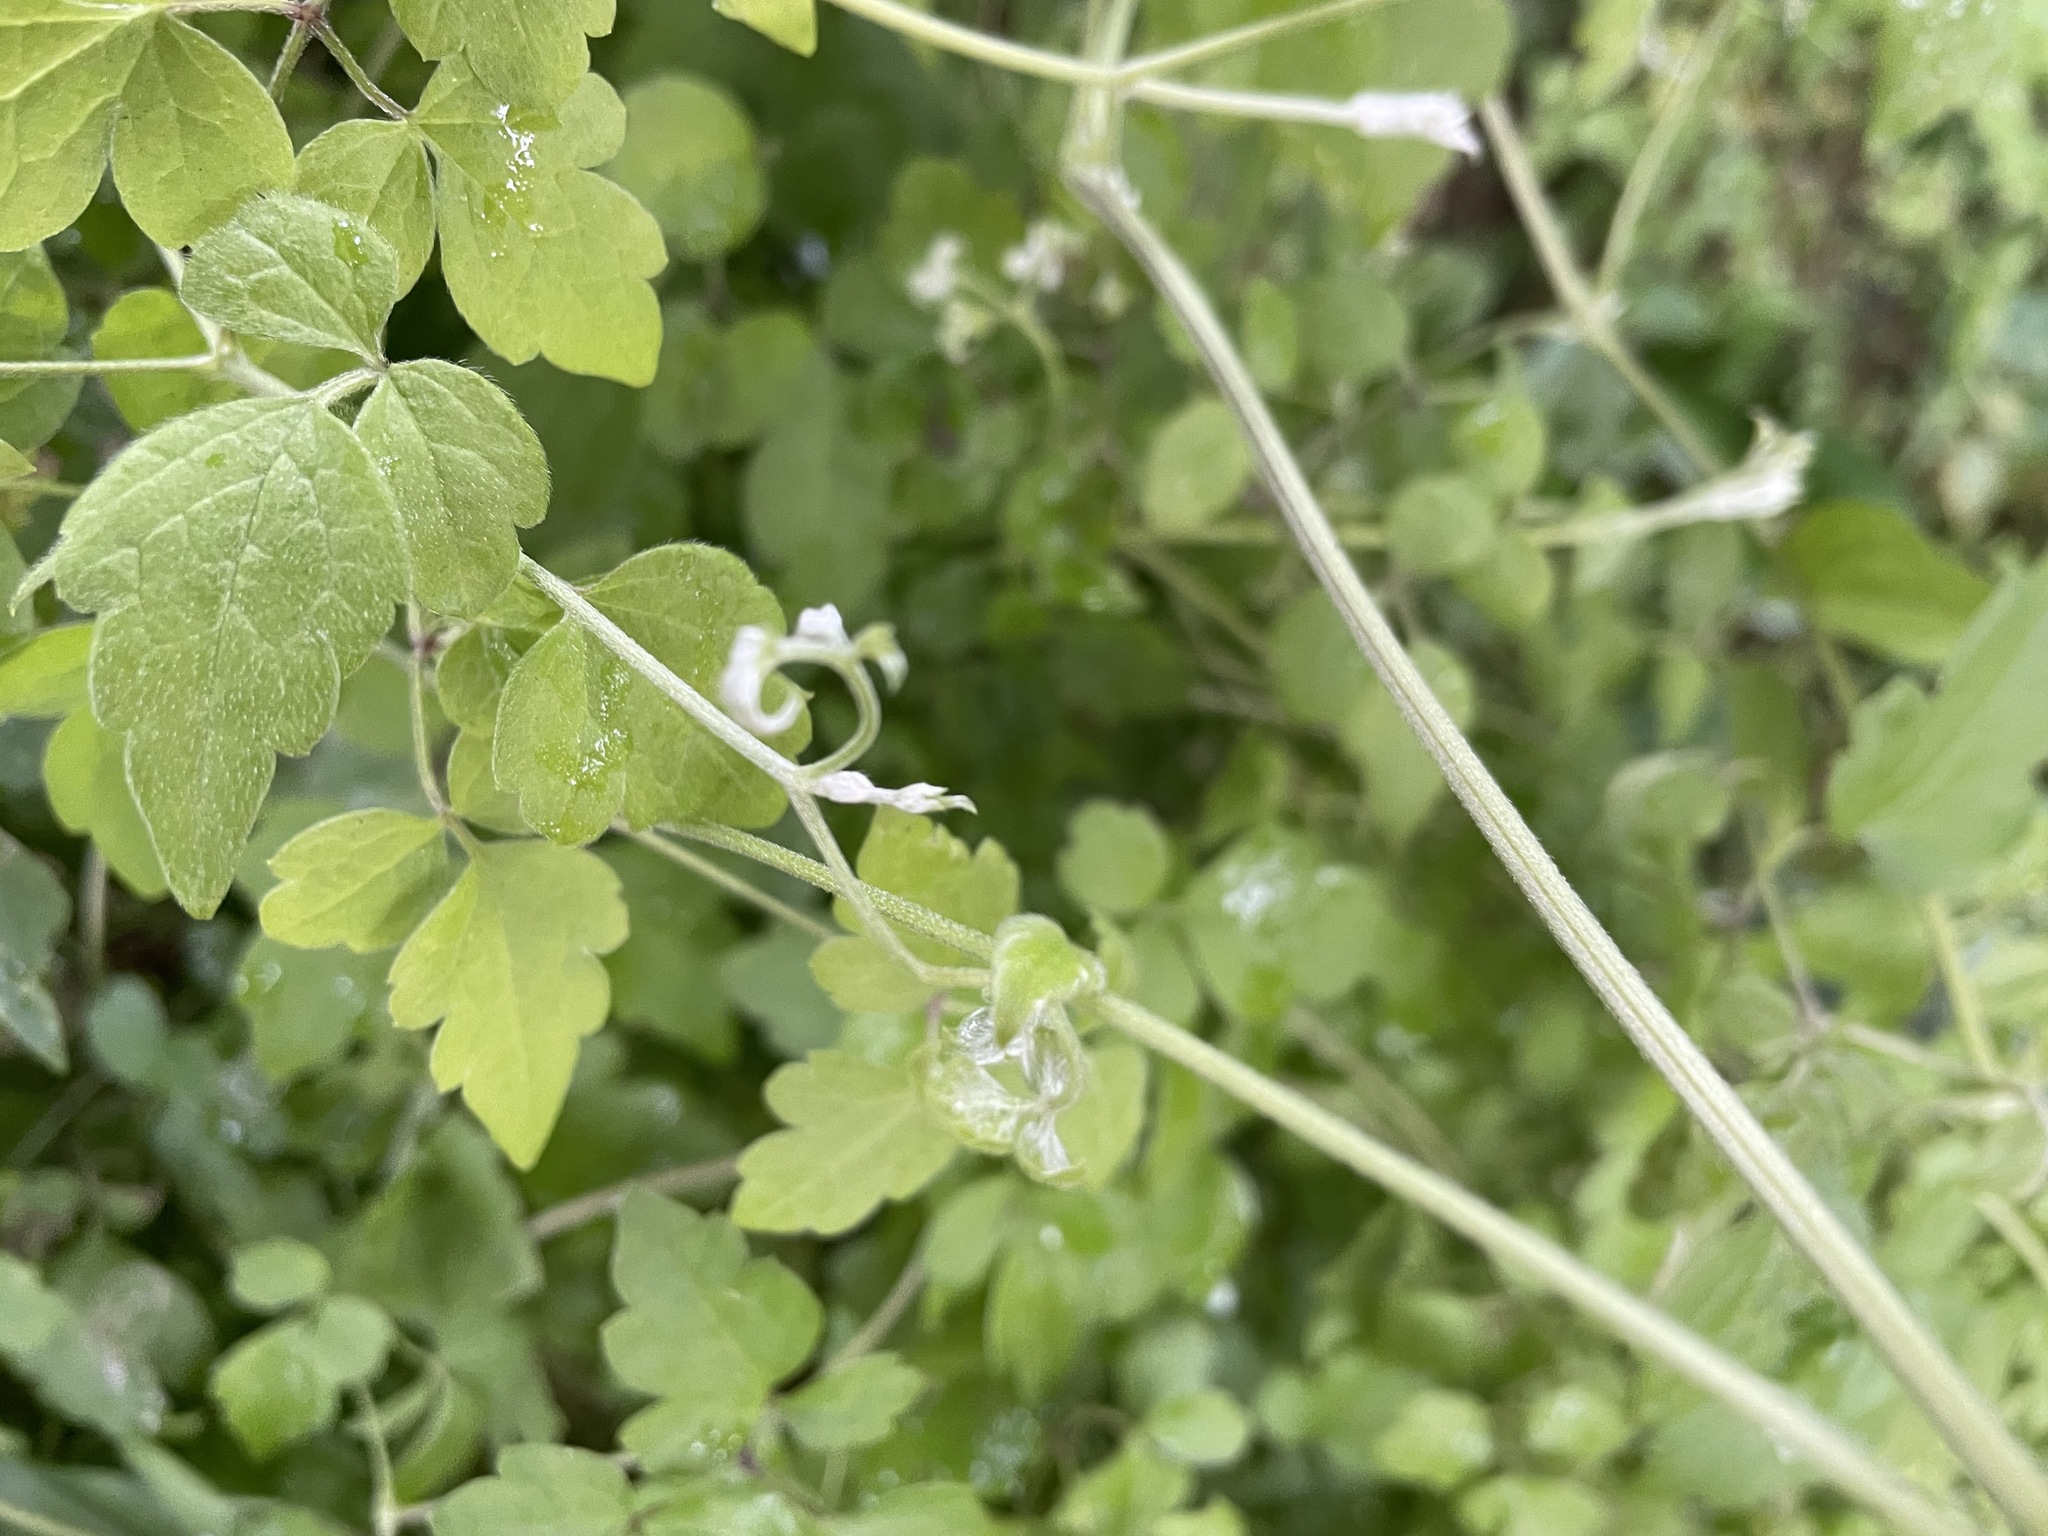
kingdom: Plantae
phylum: Tracheophyta
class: Magnoliopsida
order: Ranunculales
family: Ranunculaceae
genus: Clematis
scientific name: Clematis grata
